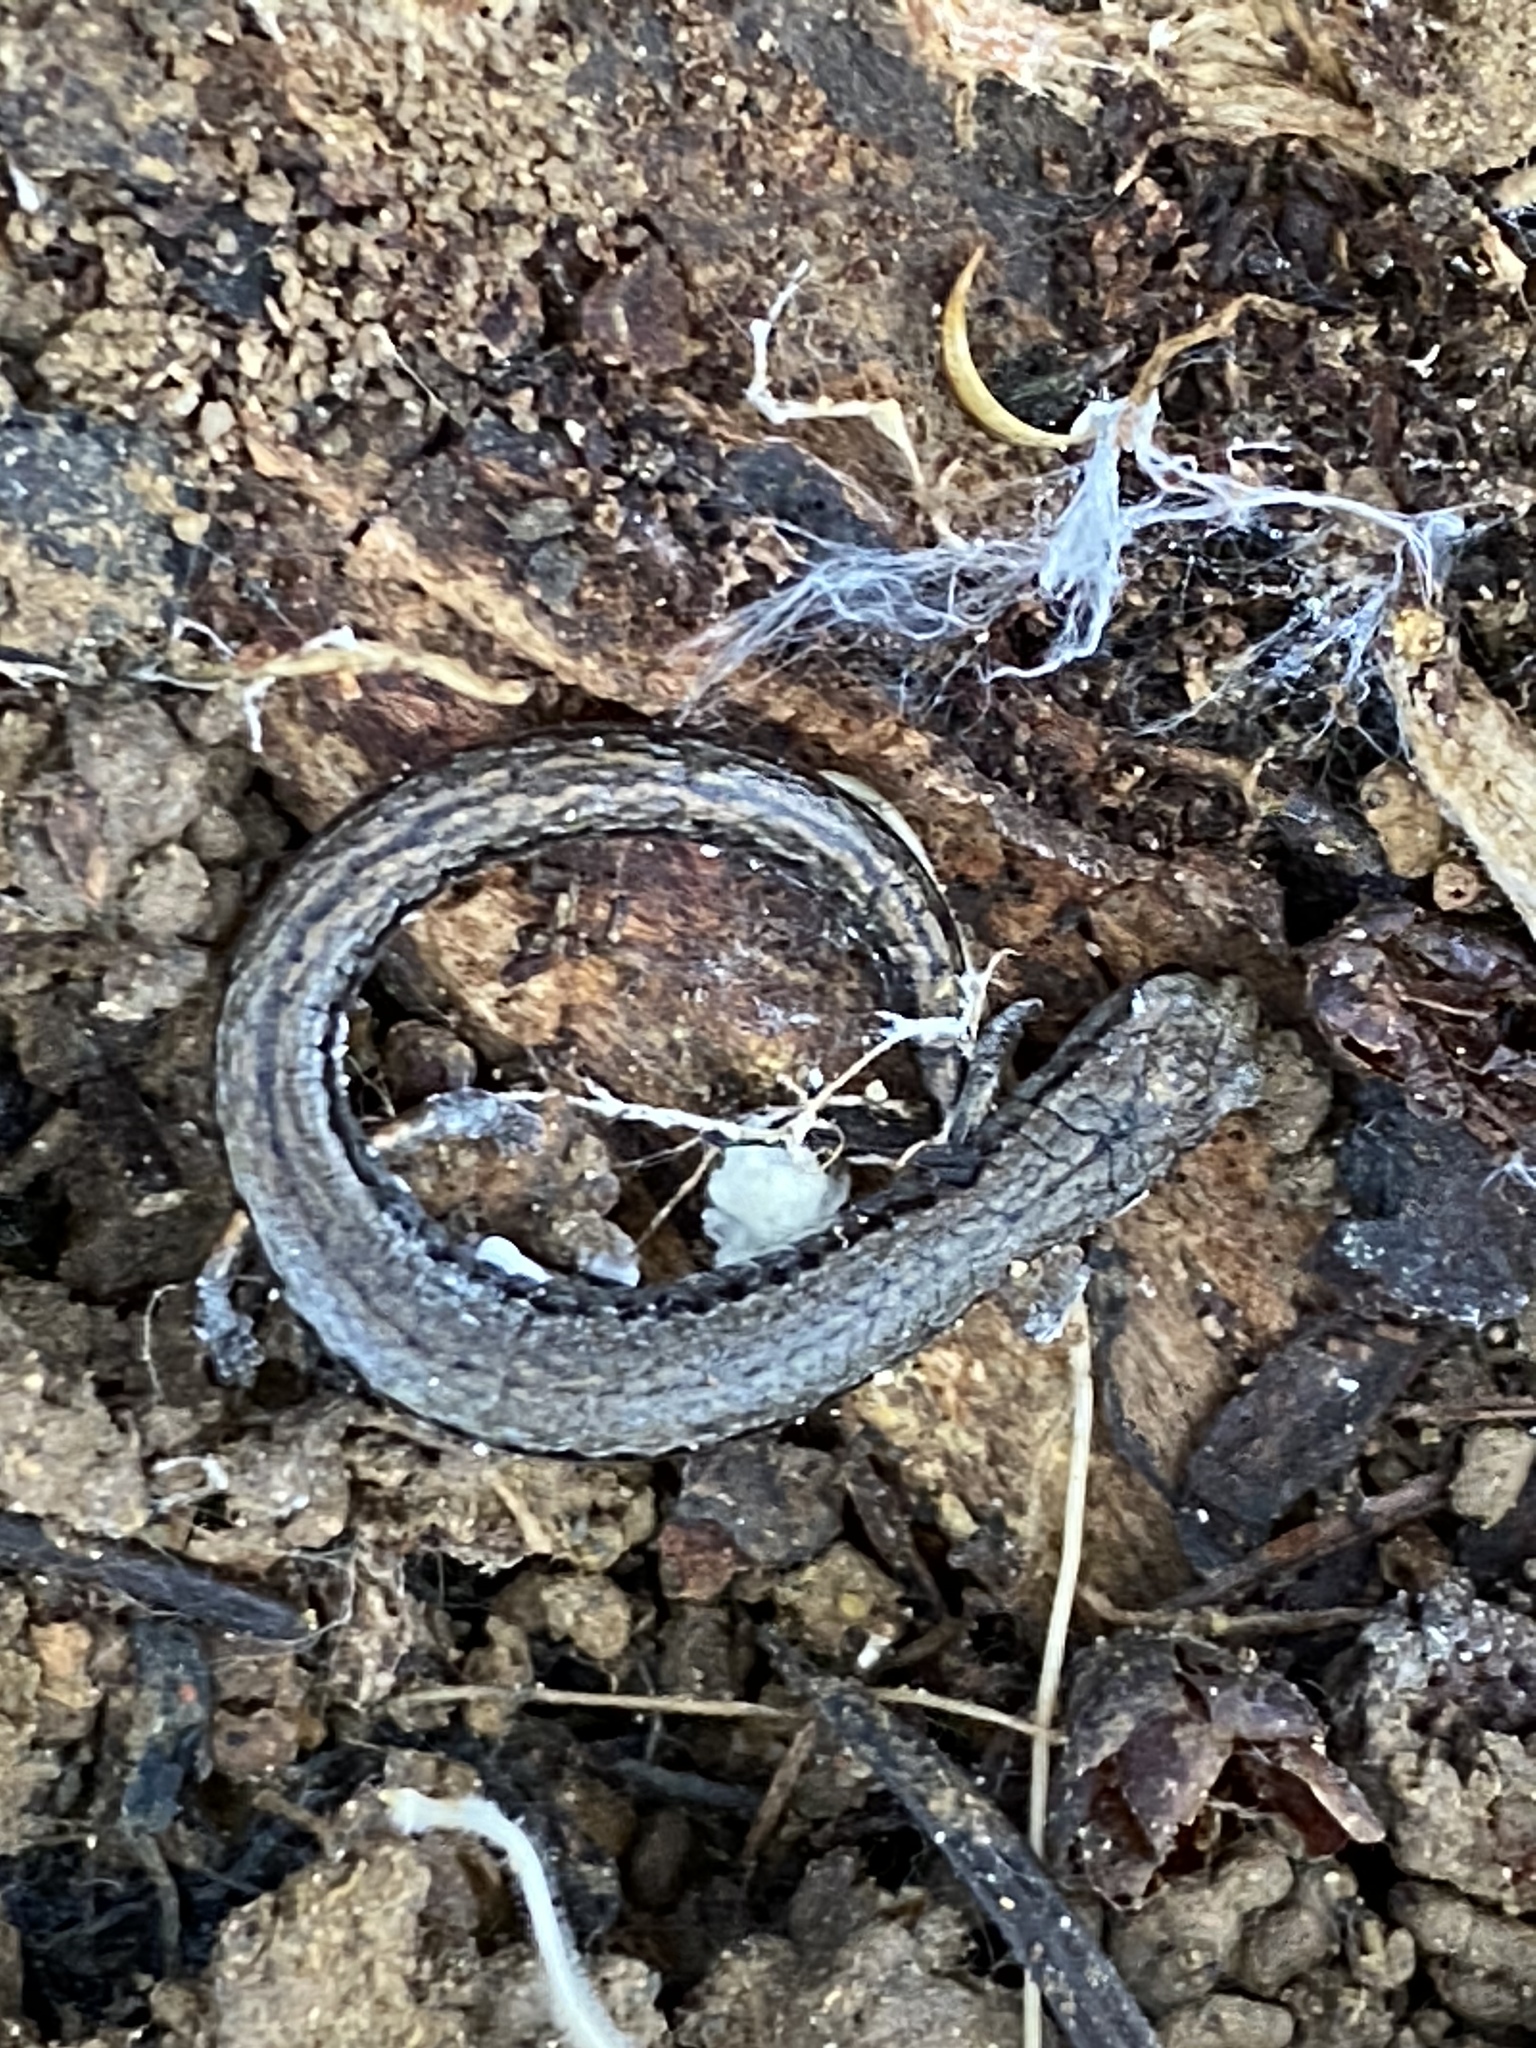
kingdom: Animalia
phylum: Chordata
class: Amphibia
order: Caudata
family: Plethodontidae
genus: Batrachoseps
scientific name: Batrachoseps attenuatus
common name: California slender salamander
